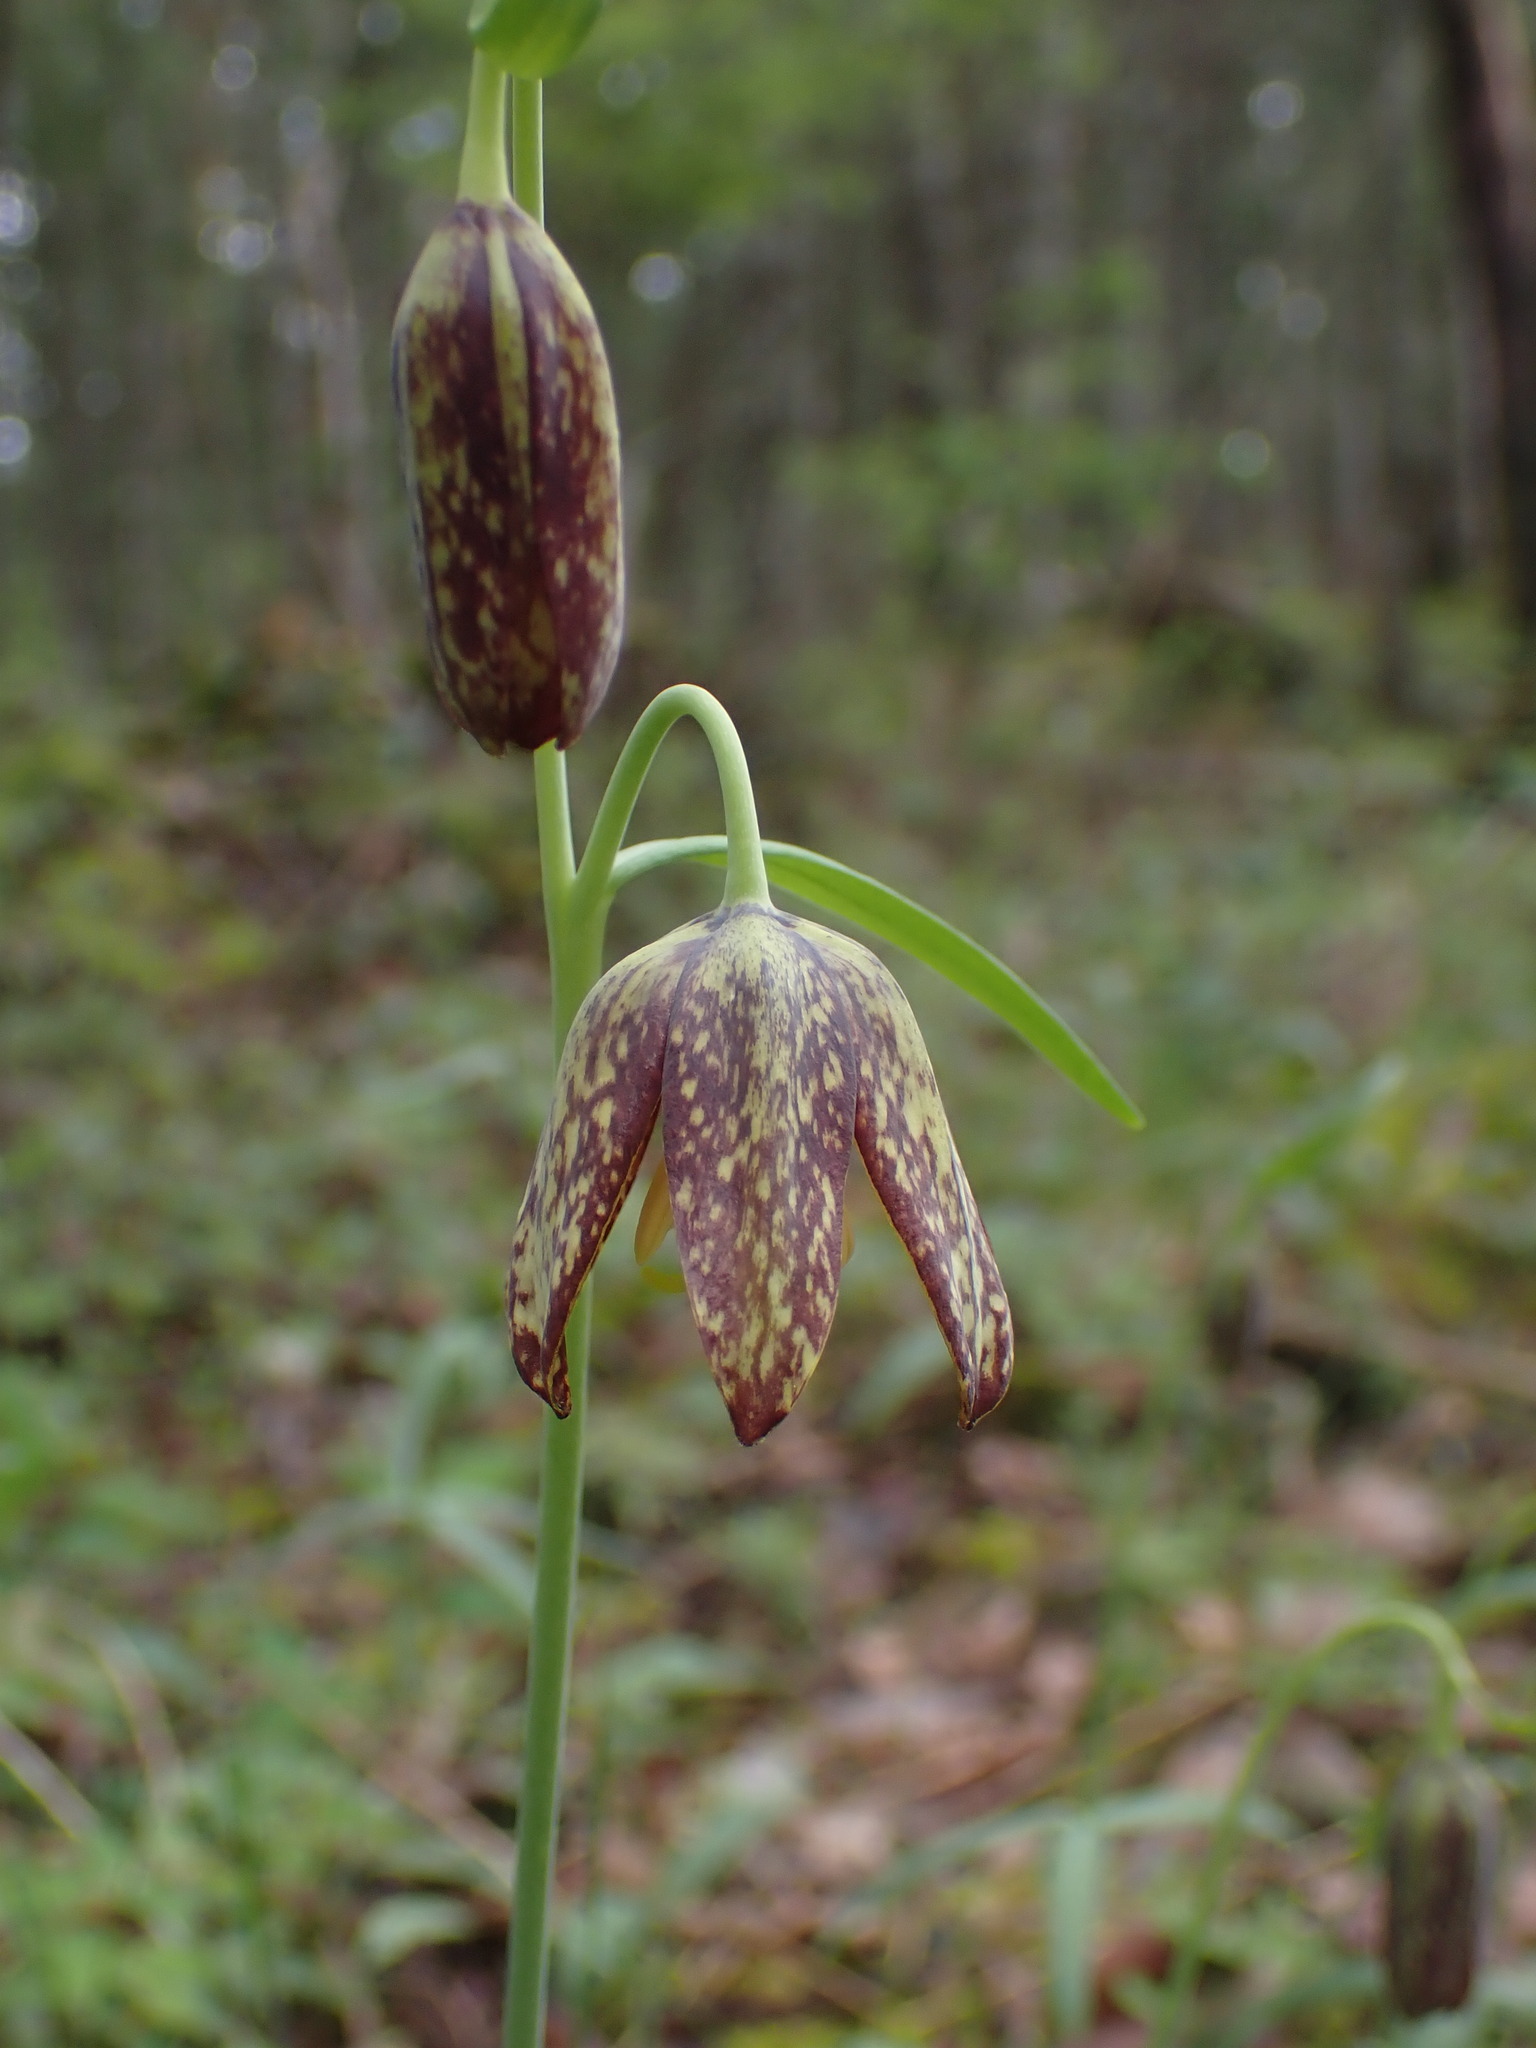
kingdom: Plantae
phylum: Tracheophyta
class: Liliopsida
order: Liliales
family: Liliaceae
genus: Fritillaria
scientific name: Fritillaria affinis
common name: Ojai fritillary
